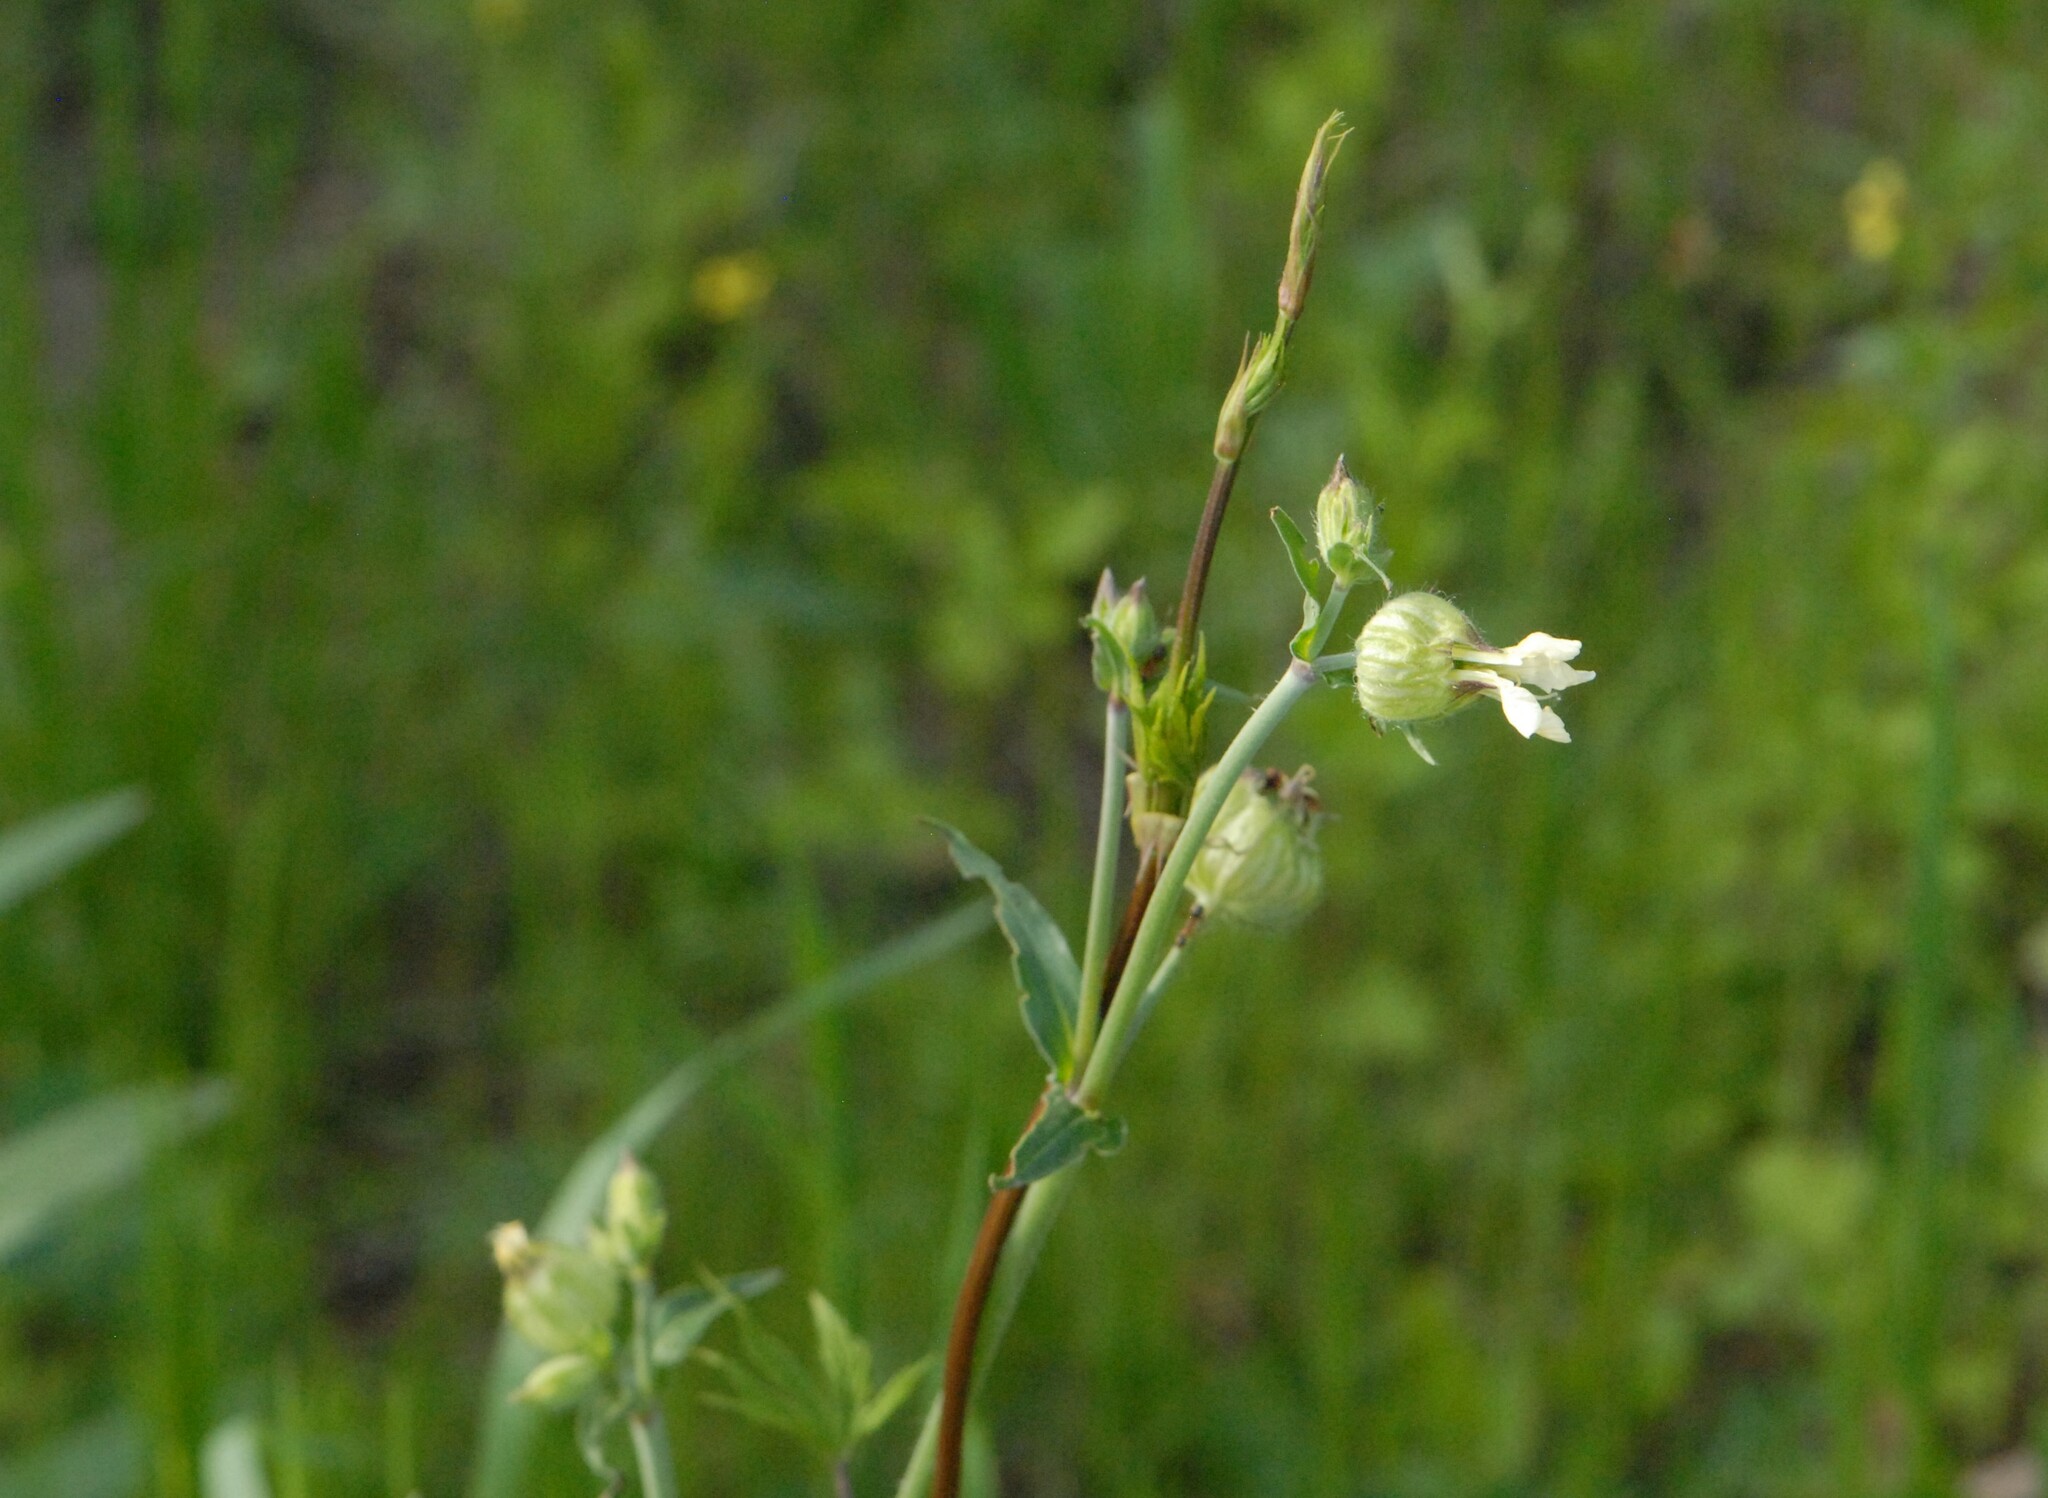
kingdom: Plantae
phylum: Tracheophyta
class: Magnoliopsida
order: Caryophyllales
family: Caryophyllaceae
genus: Silene
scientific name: Silene latifolia
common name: White campion
